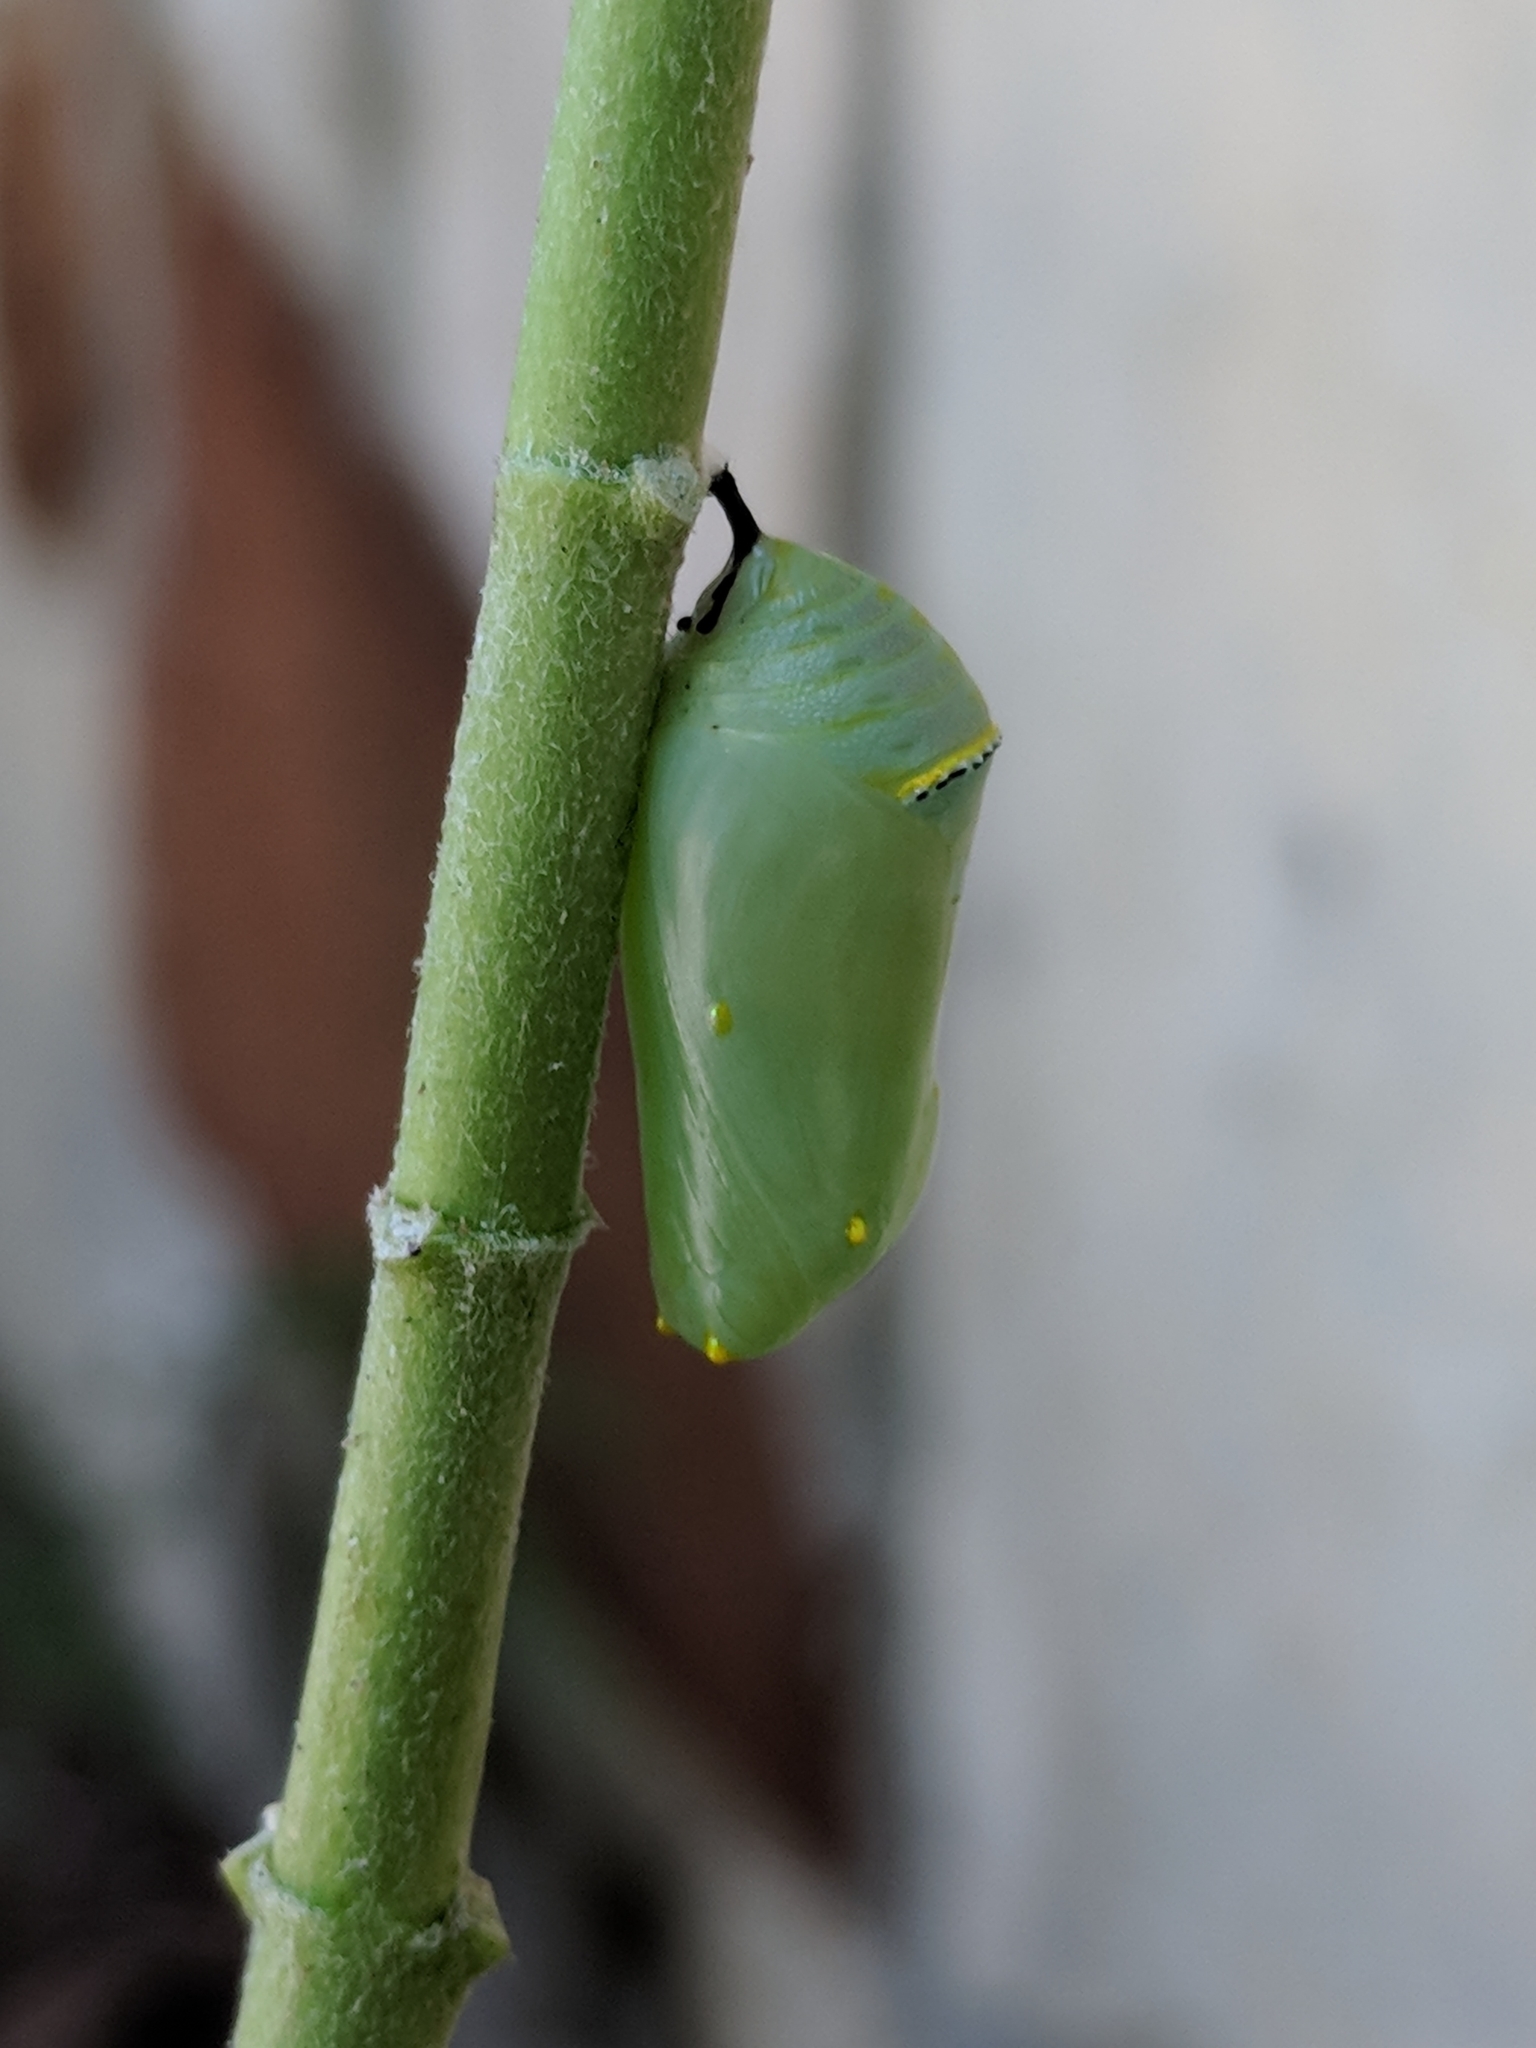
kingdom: Animalia
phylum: Arthropoda
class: Insecta
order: Lepidoptera
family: Nymphalidae
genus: Danaus
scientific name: Danaus gilippus
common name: Queen
